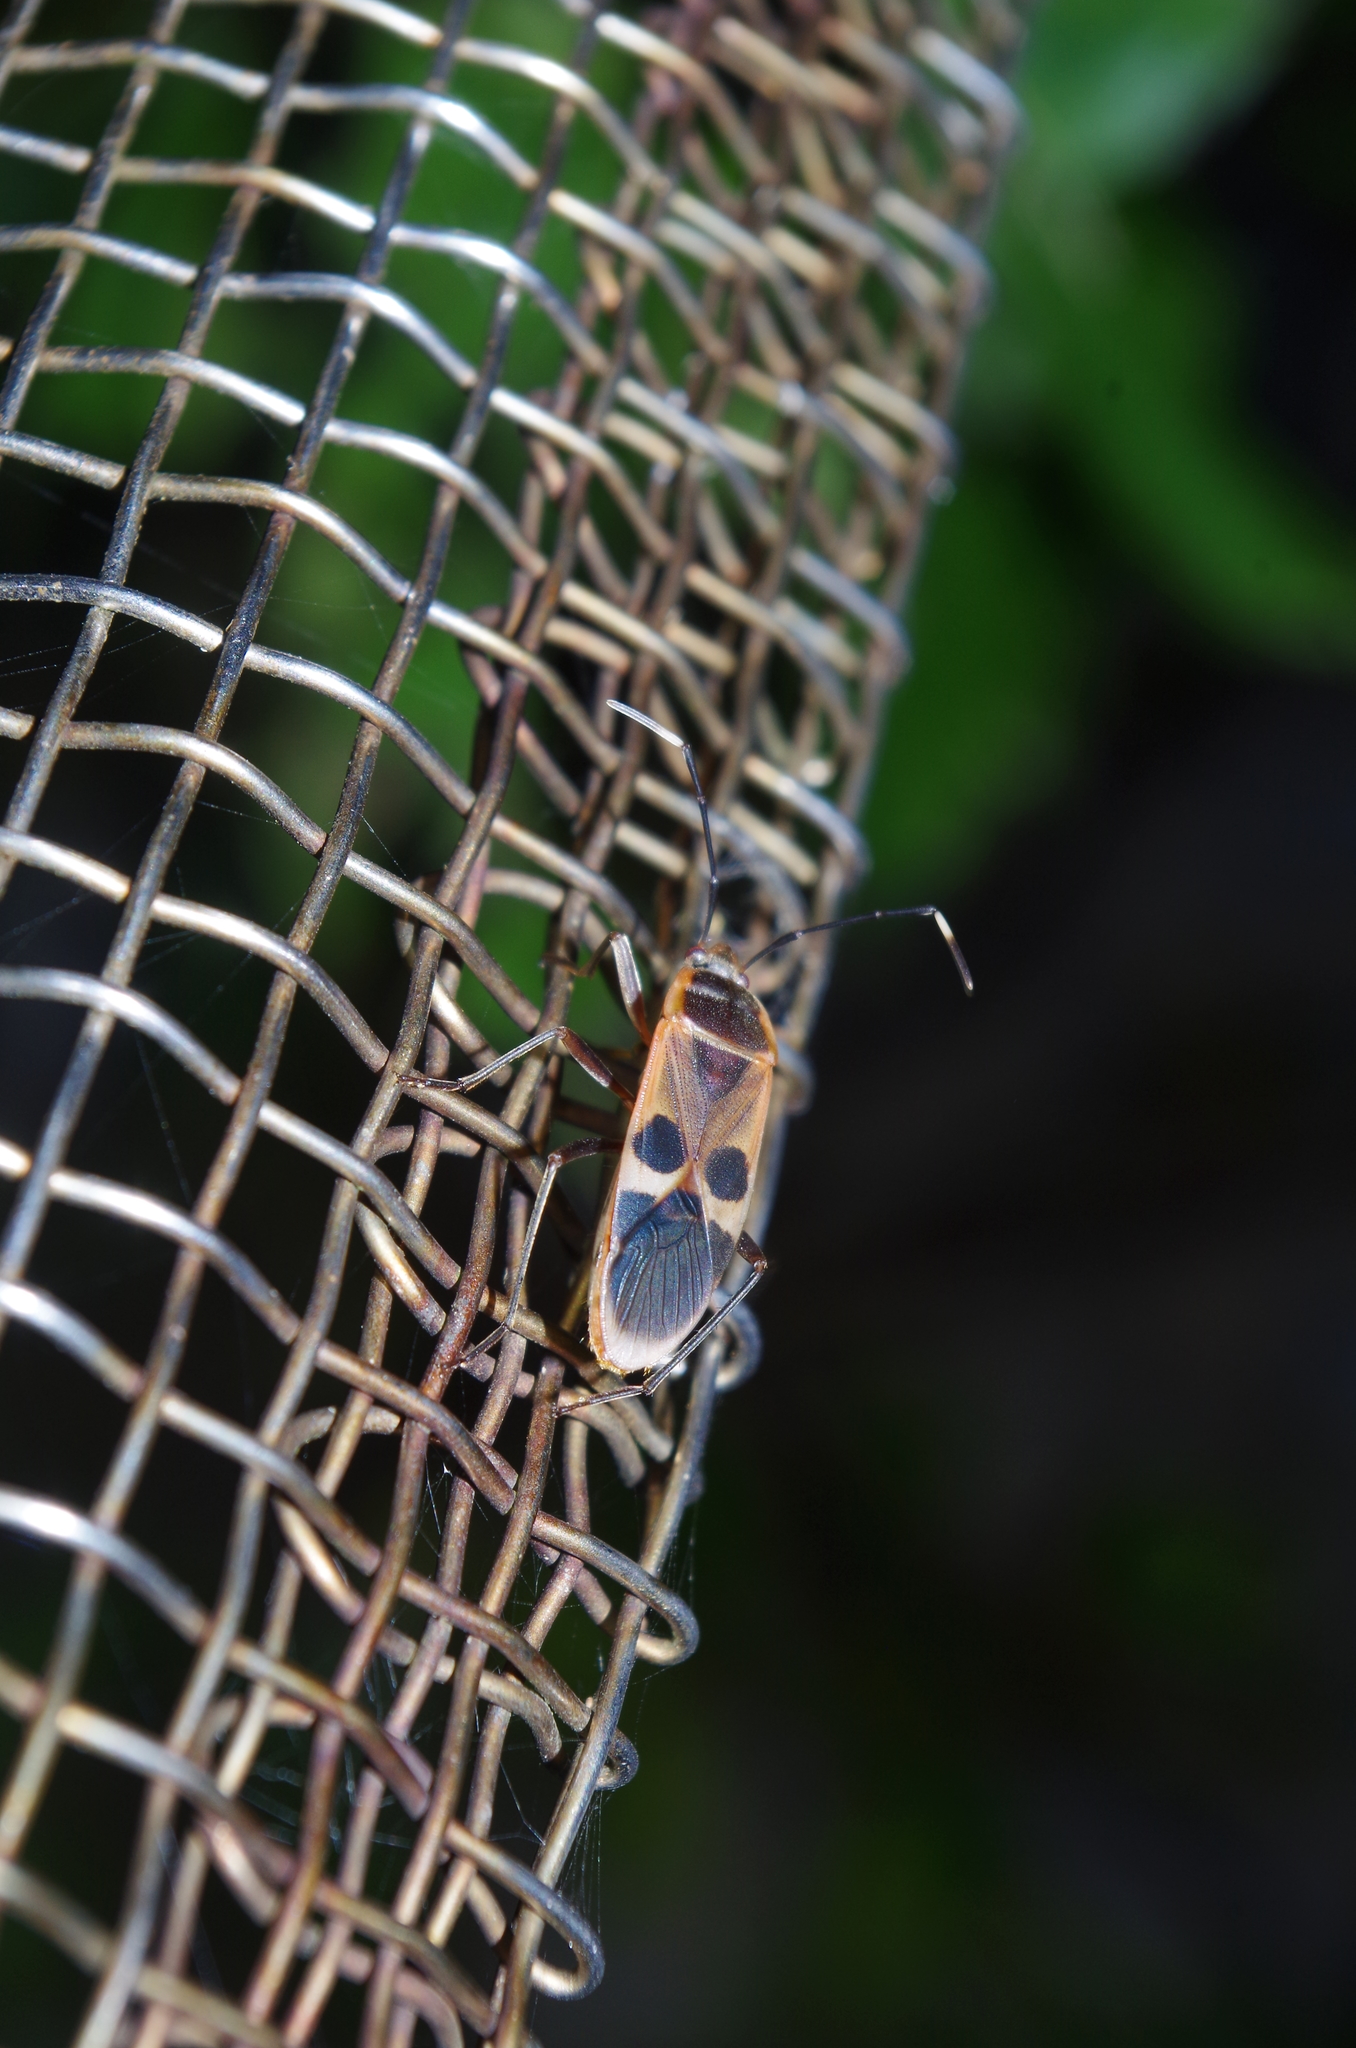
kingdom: Animalia
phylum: Arthropoda
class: Insecta
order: Hemiptera
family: Largidae
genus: Physopelta
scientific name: Physopelta gutta
